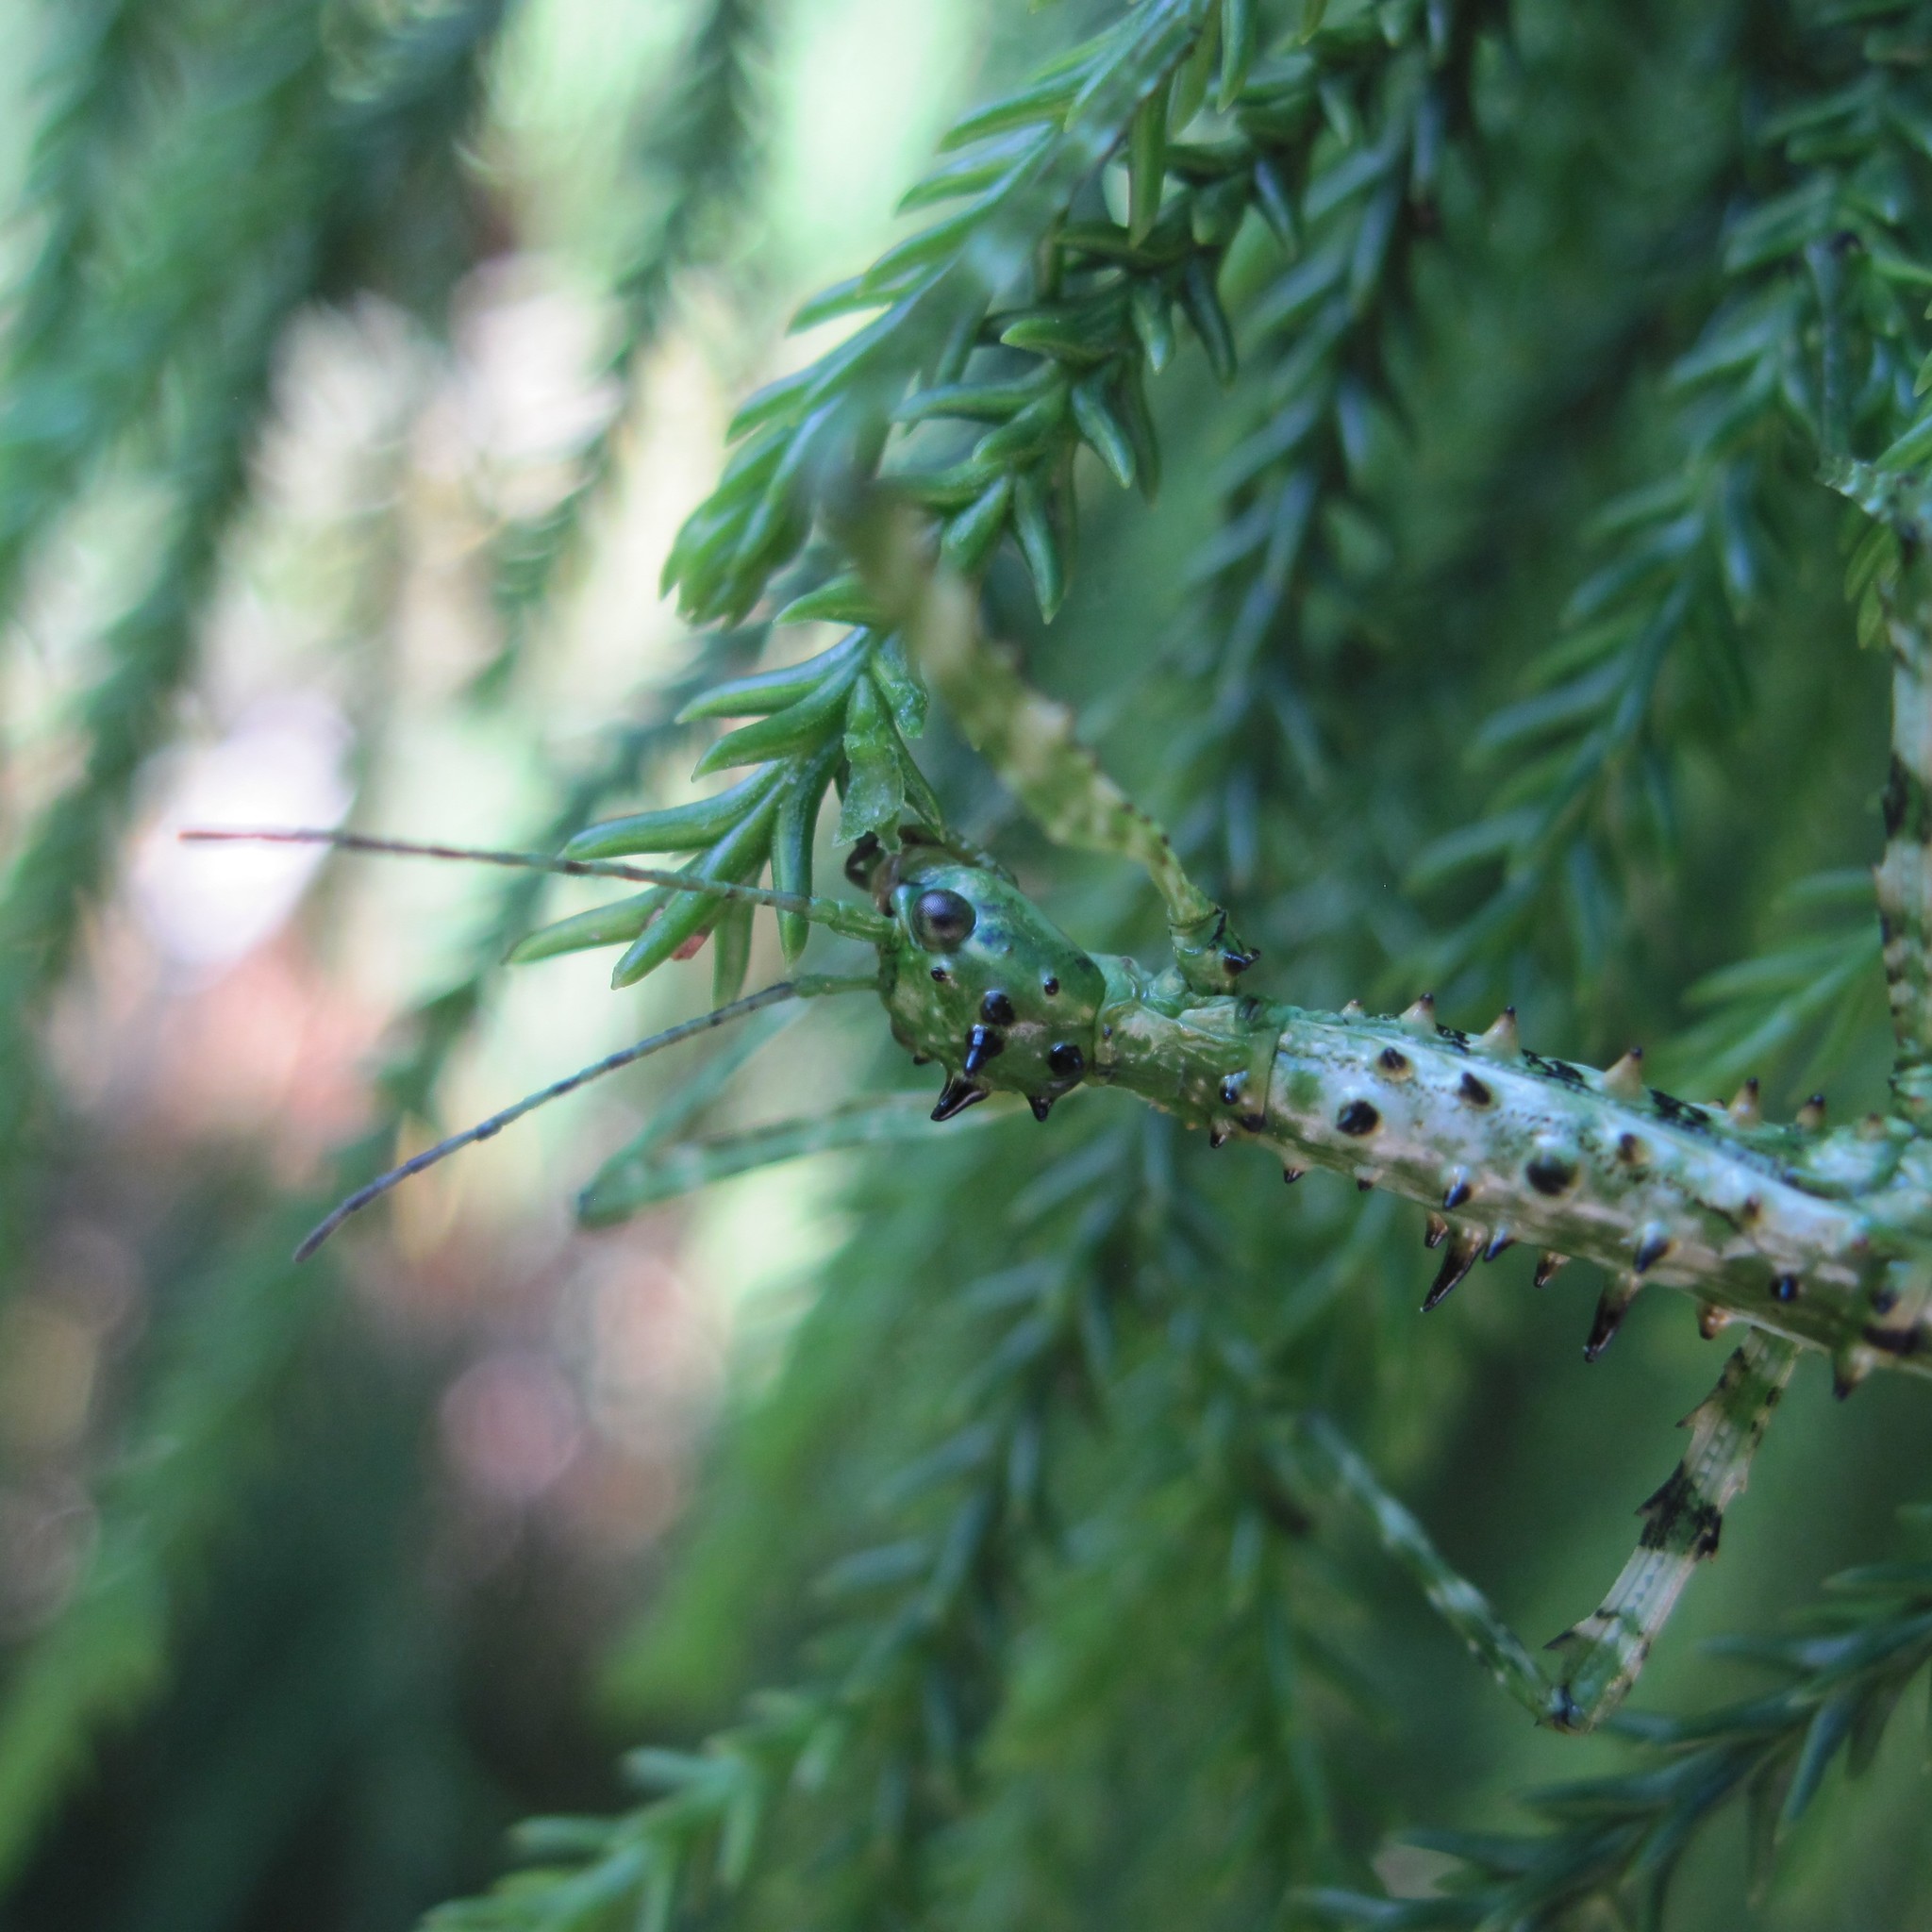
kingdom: Animalia
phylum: Arthropoda
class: Insecta
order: Phasmida
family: Phasmatidae
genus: Acanthoxyla
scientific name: Acanthoxyla geisovii
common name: Prickly stick insect
